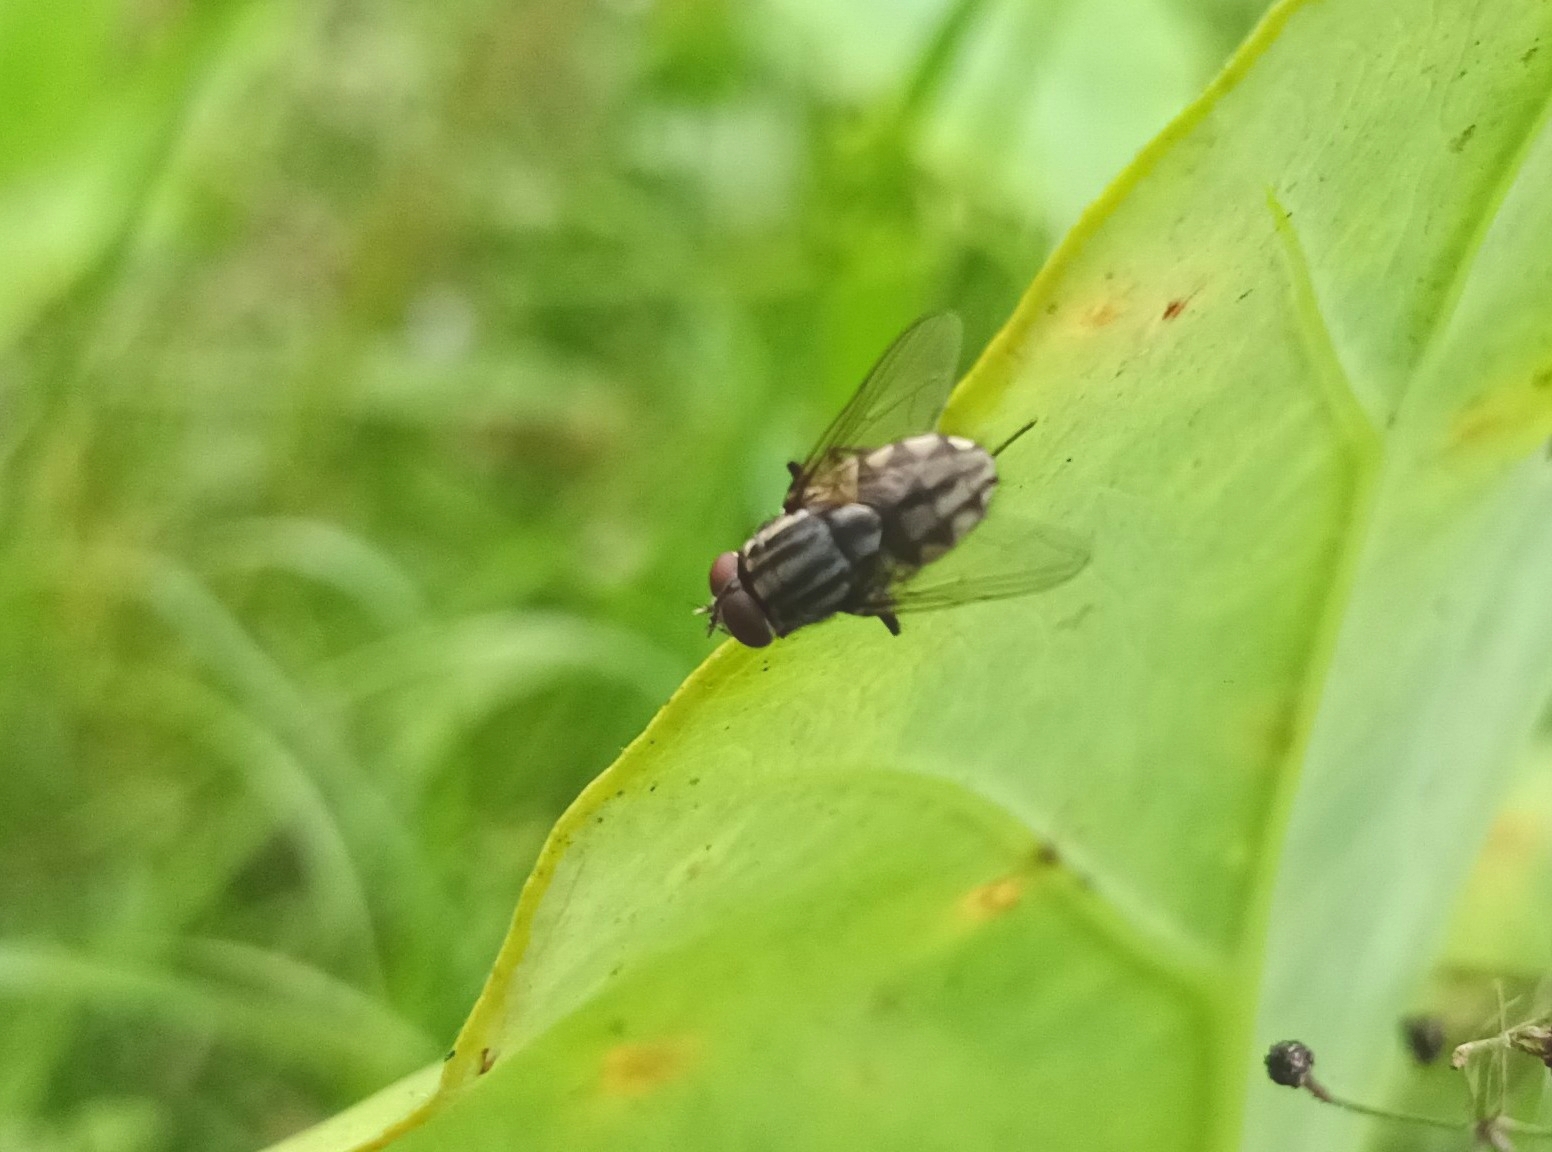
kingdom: Animalia
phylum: Arthropoda
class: Insecta
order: Diptera
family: Muscidae
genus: Musca
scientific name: Musca domestica
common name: House fly
